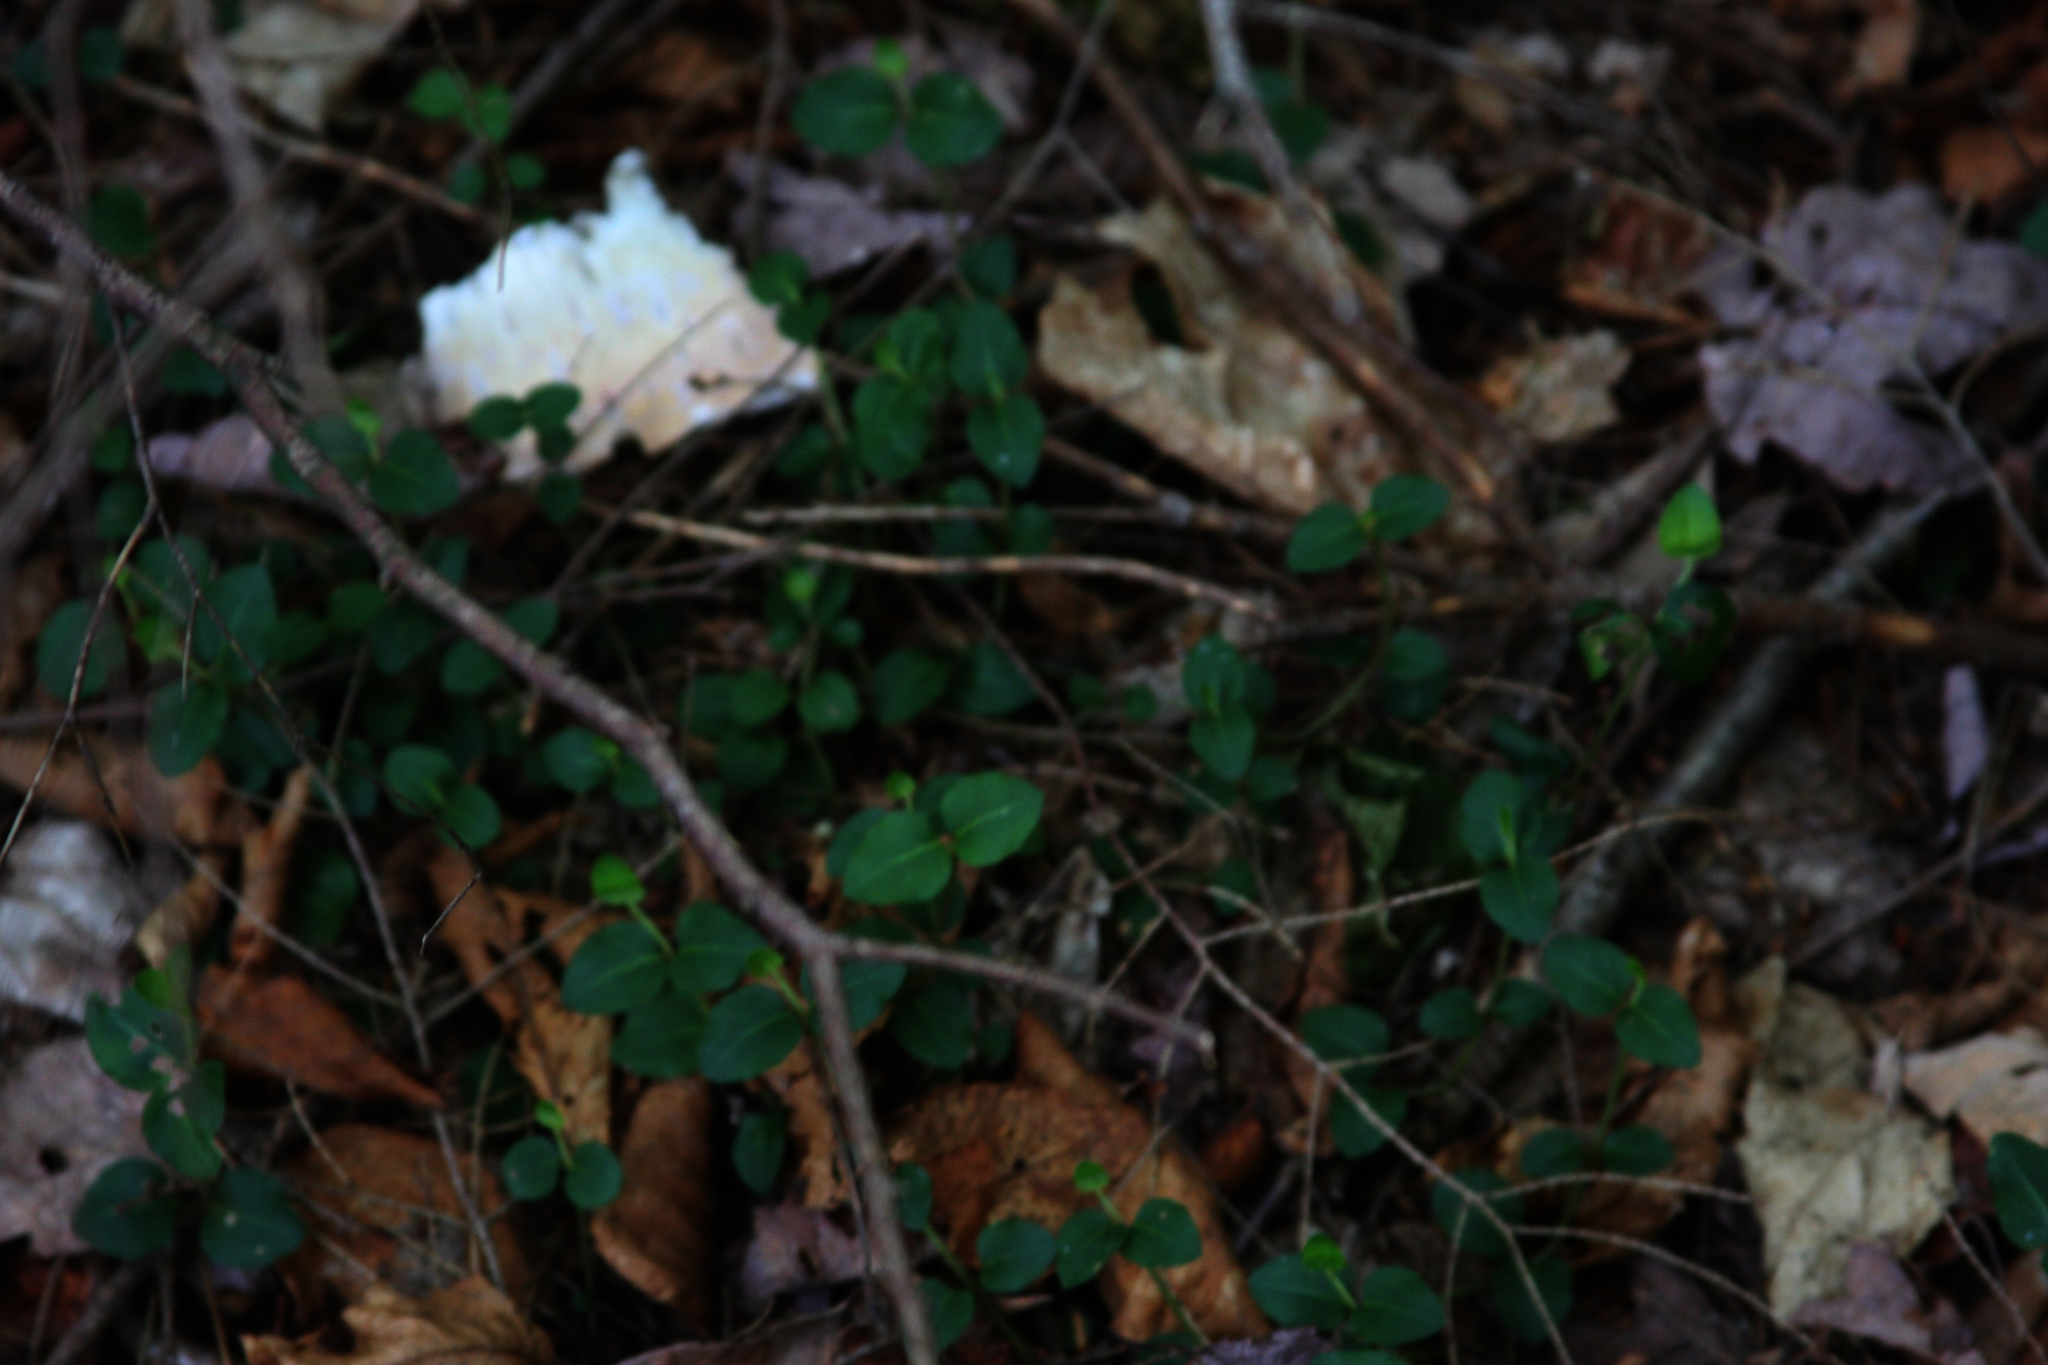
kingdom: Plantae
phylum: Tracheophyta
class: Magnoliopsida
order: Gentianales
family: Rubiaceae
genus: Mitchella
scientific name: Mitchella repens
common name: Partridge-berry
